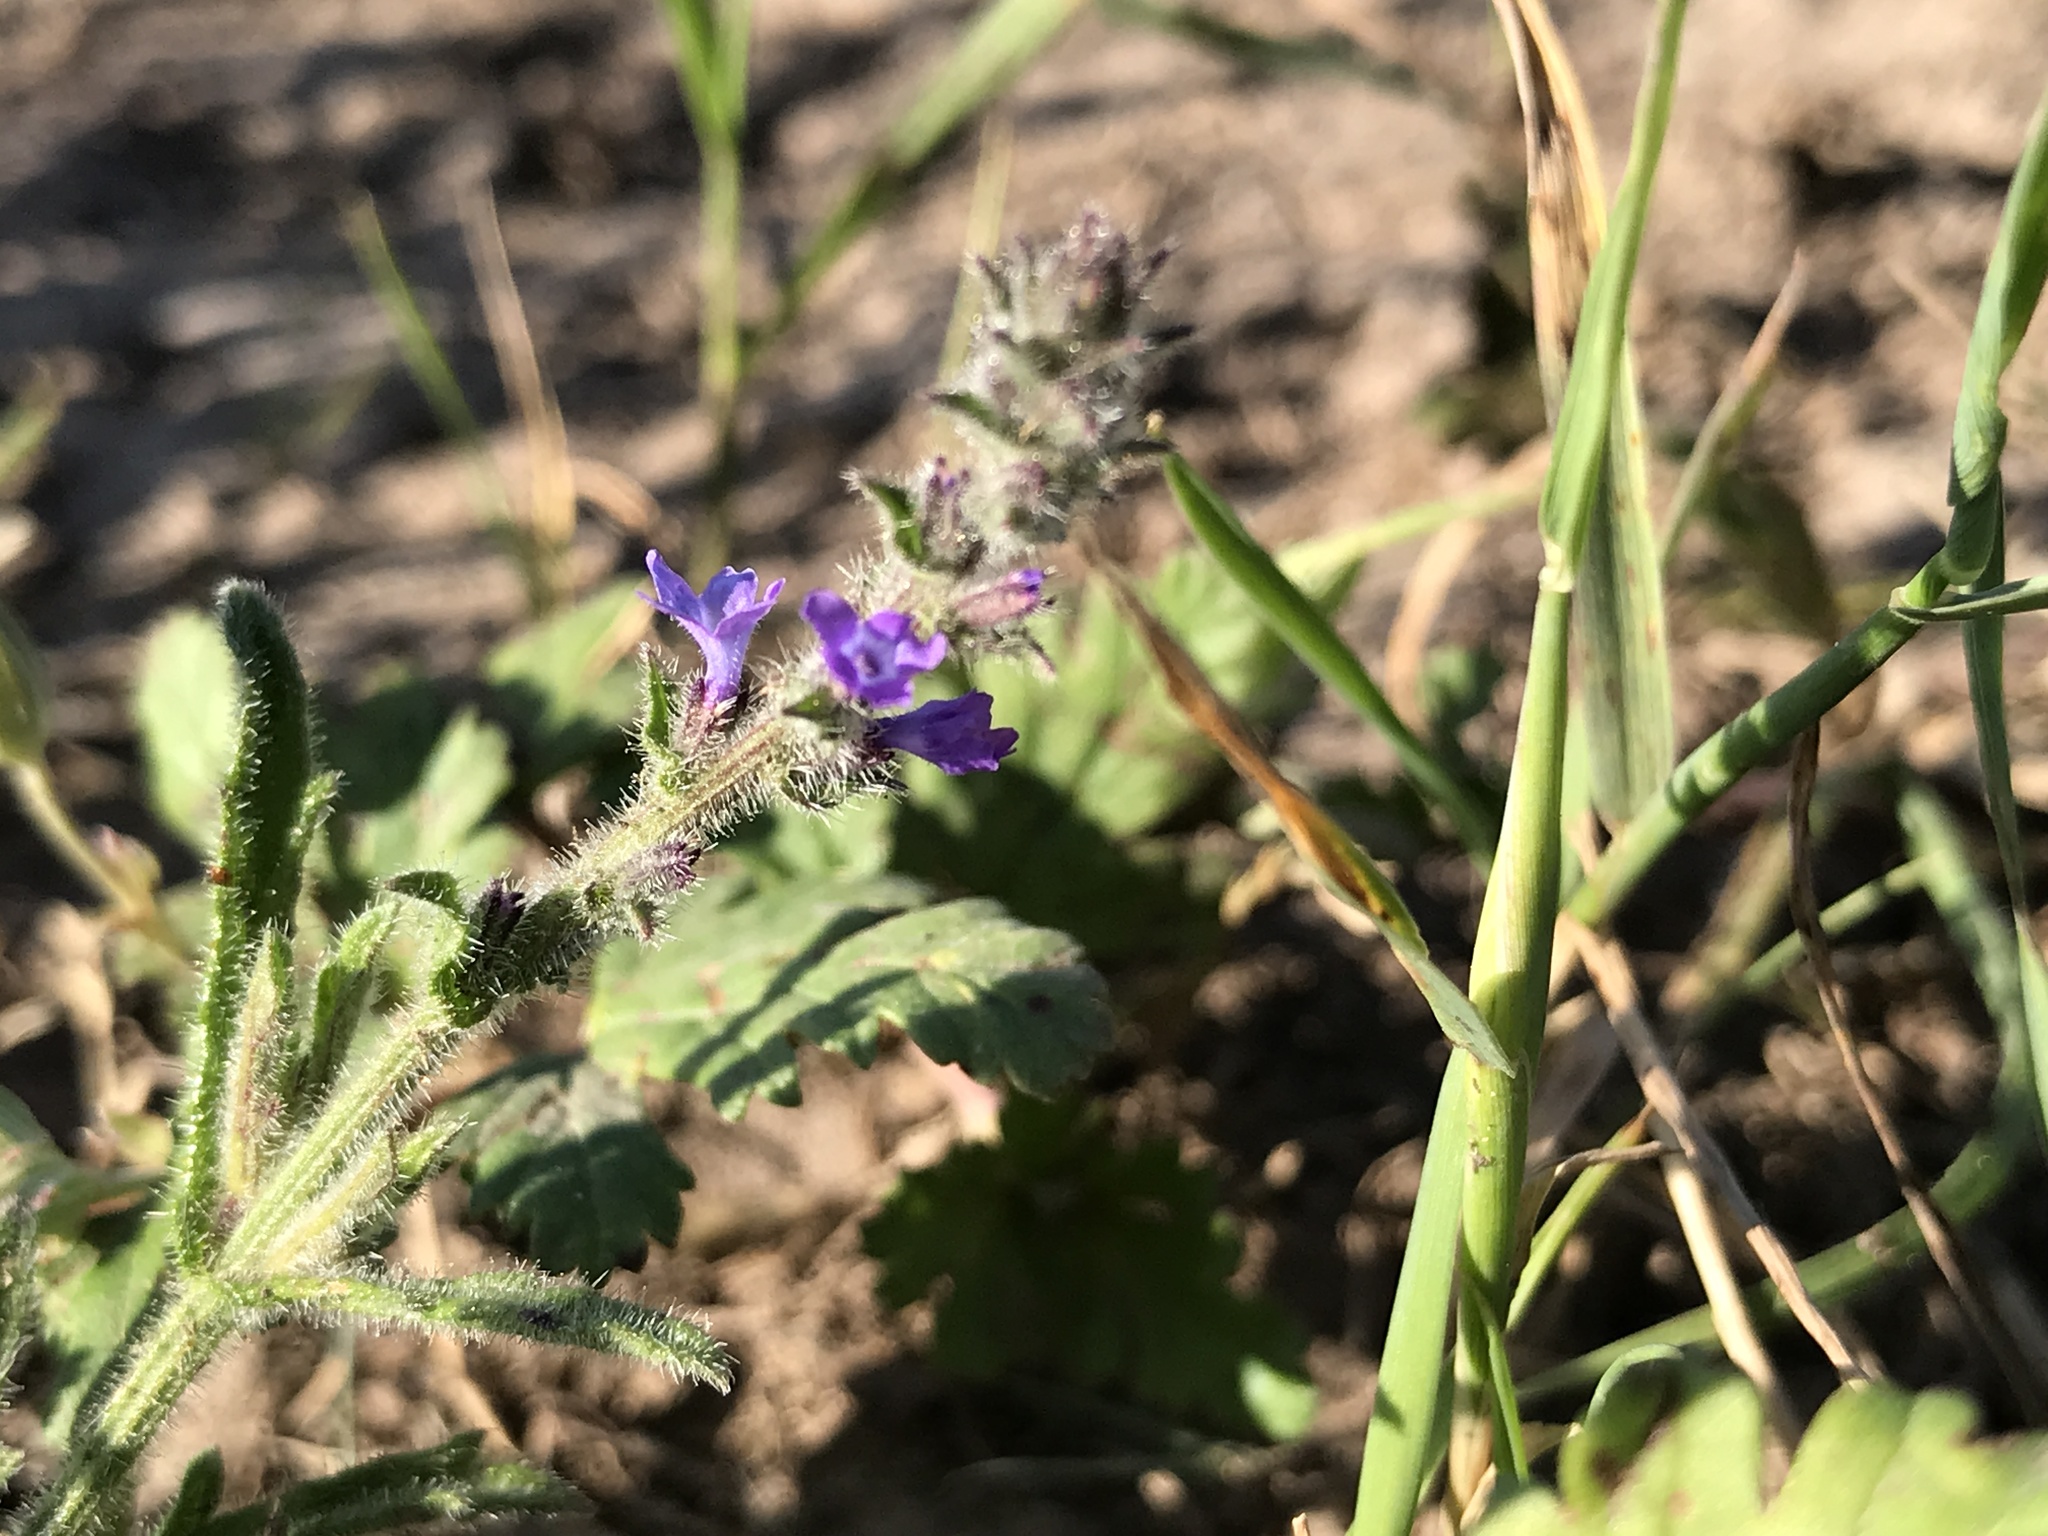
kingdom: Plantae
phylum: Tracheophyta
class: Magnoliopsida
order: Lamiales
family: Verbenaceae
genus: Verbena
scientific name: Verbena canescens
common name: Gray vervain
